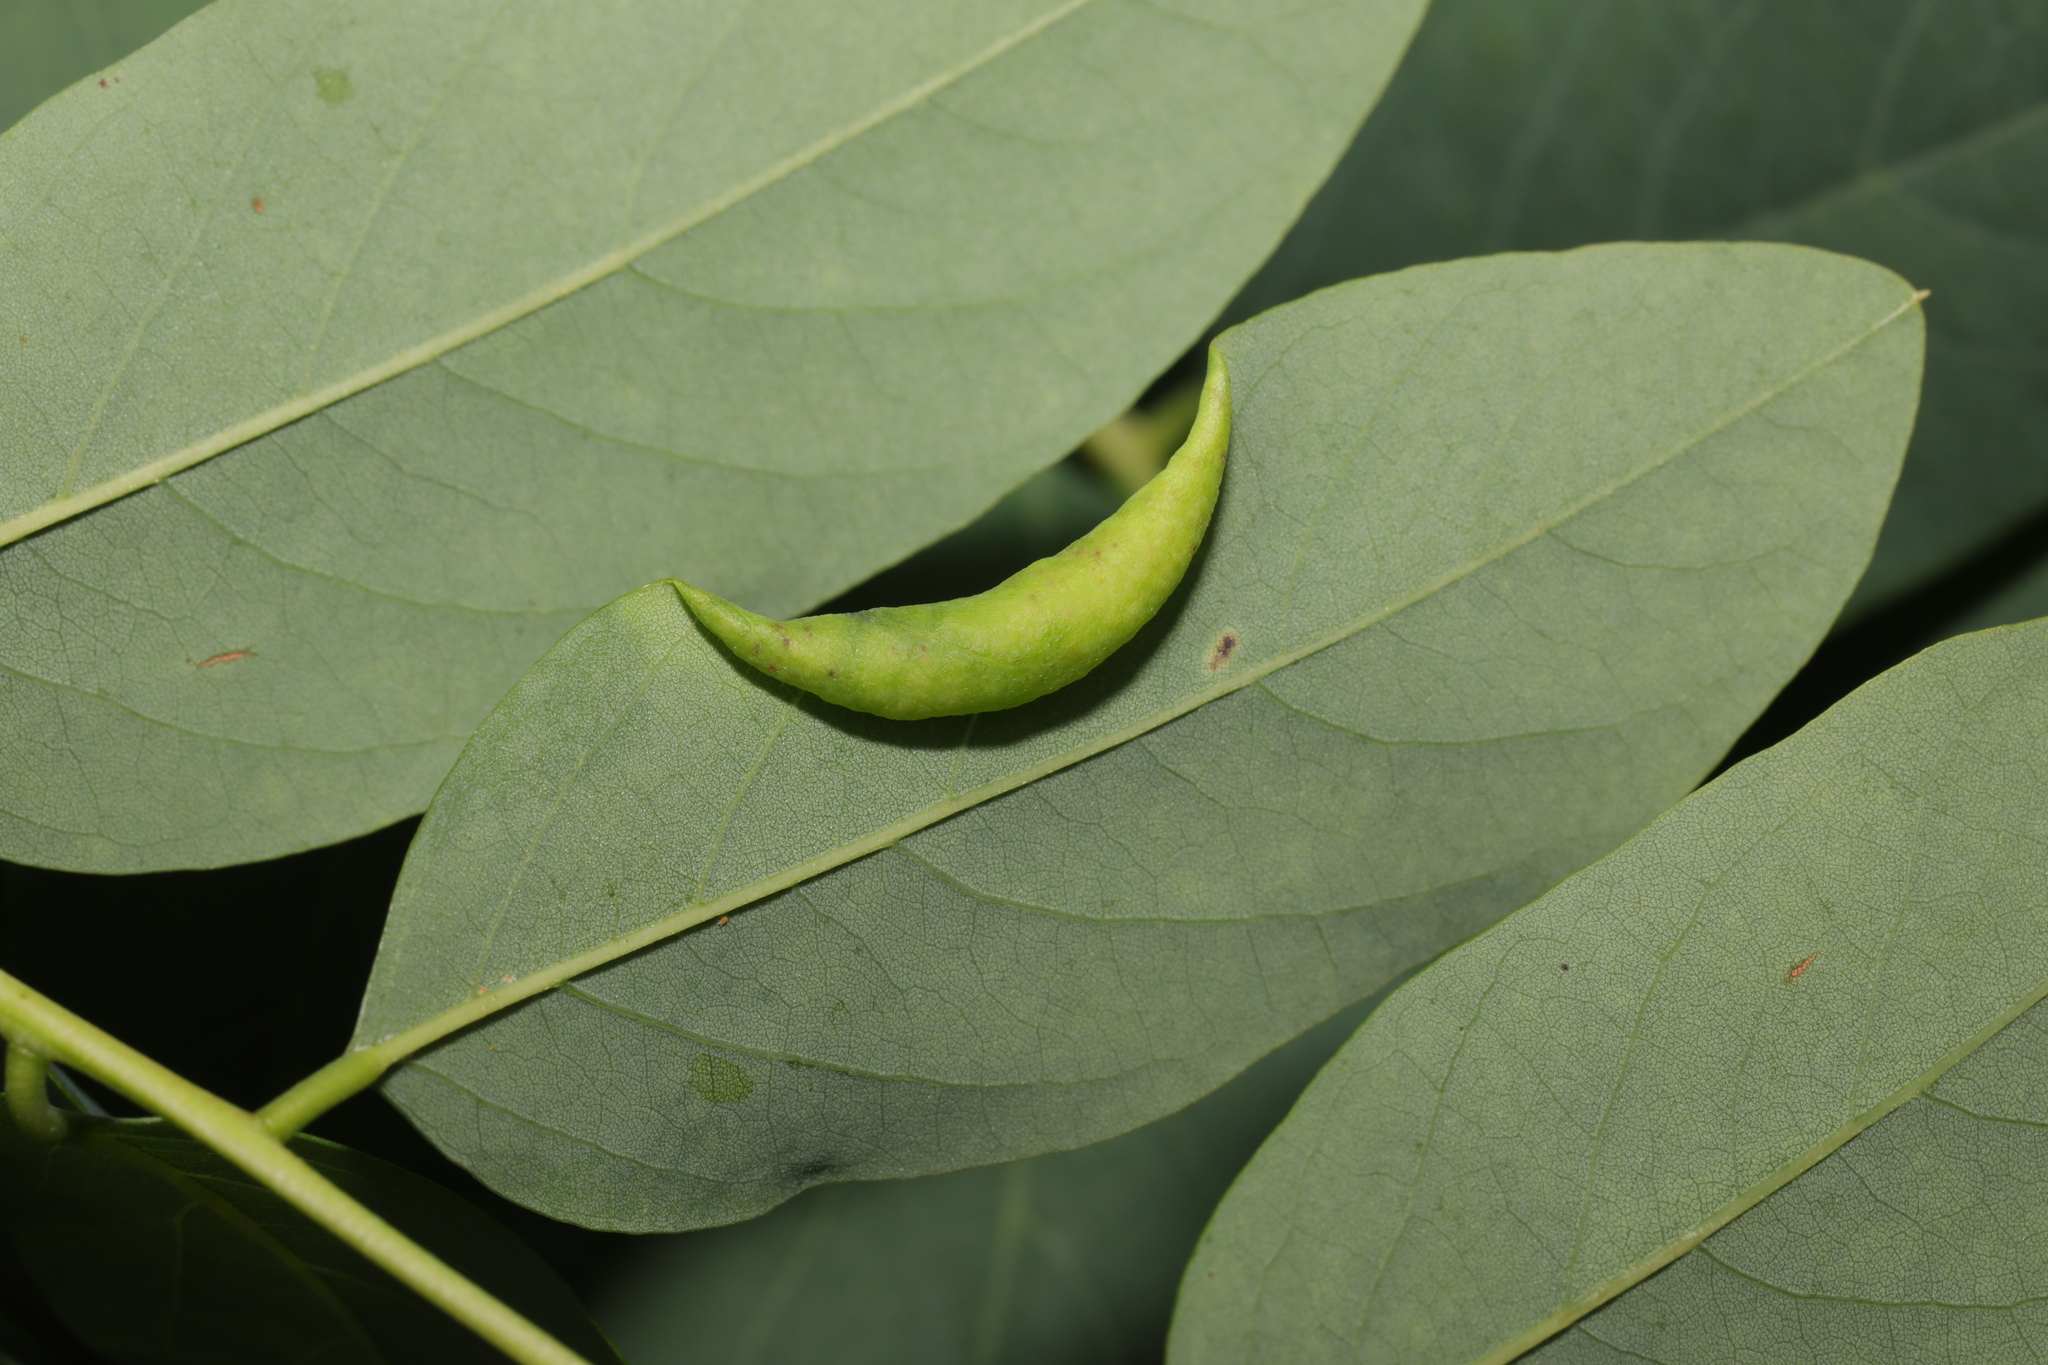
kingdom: Animalia
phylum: Arthropoda
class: Insecta
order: Diptera
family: Cecidomyiidae
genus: Obolodiplosis
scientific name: Obolodiplosis robiniae
